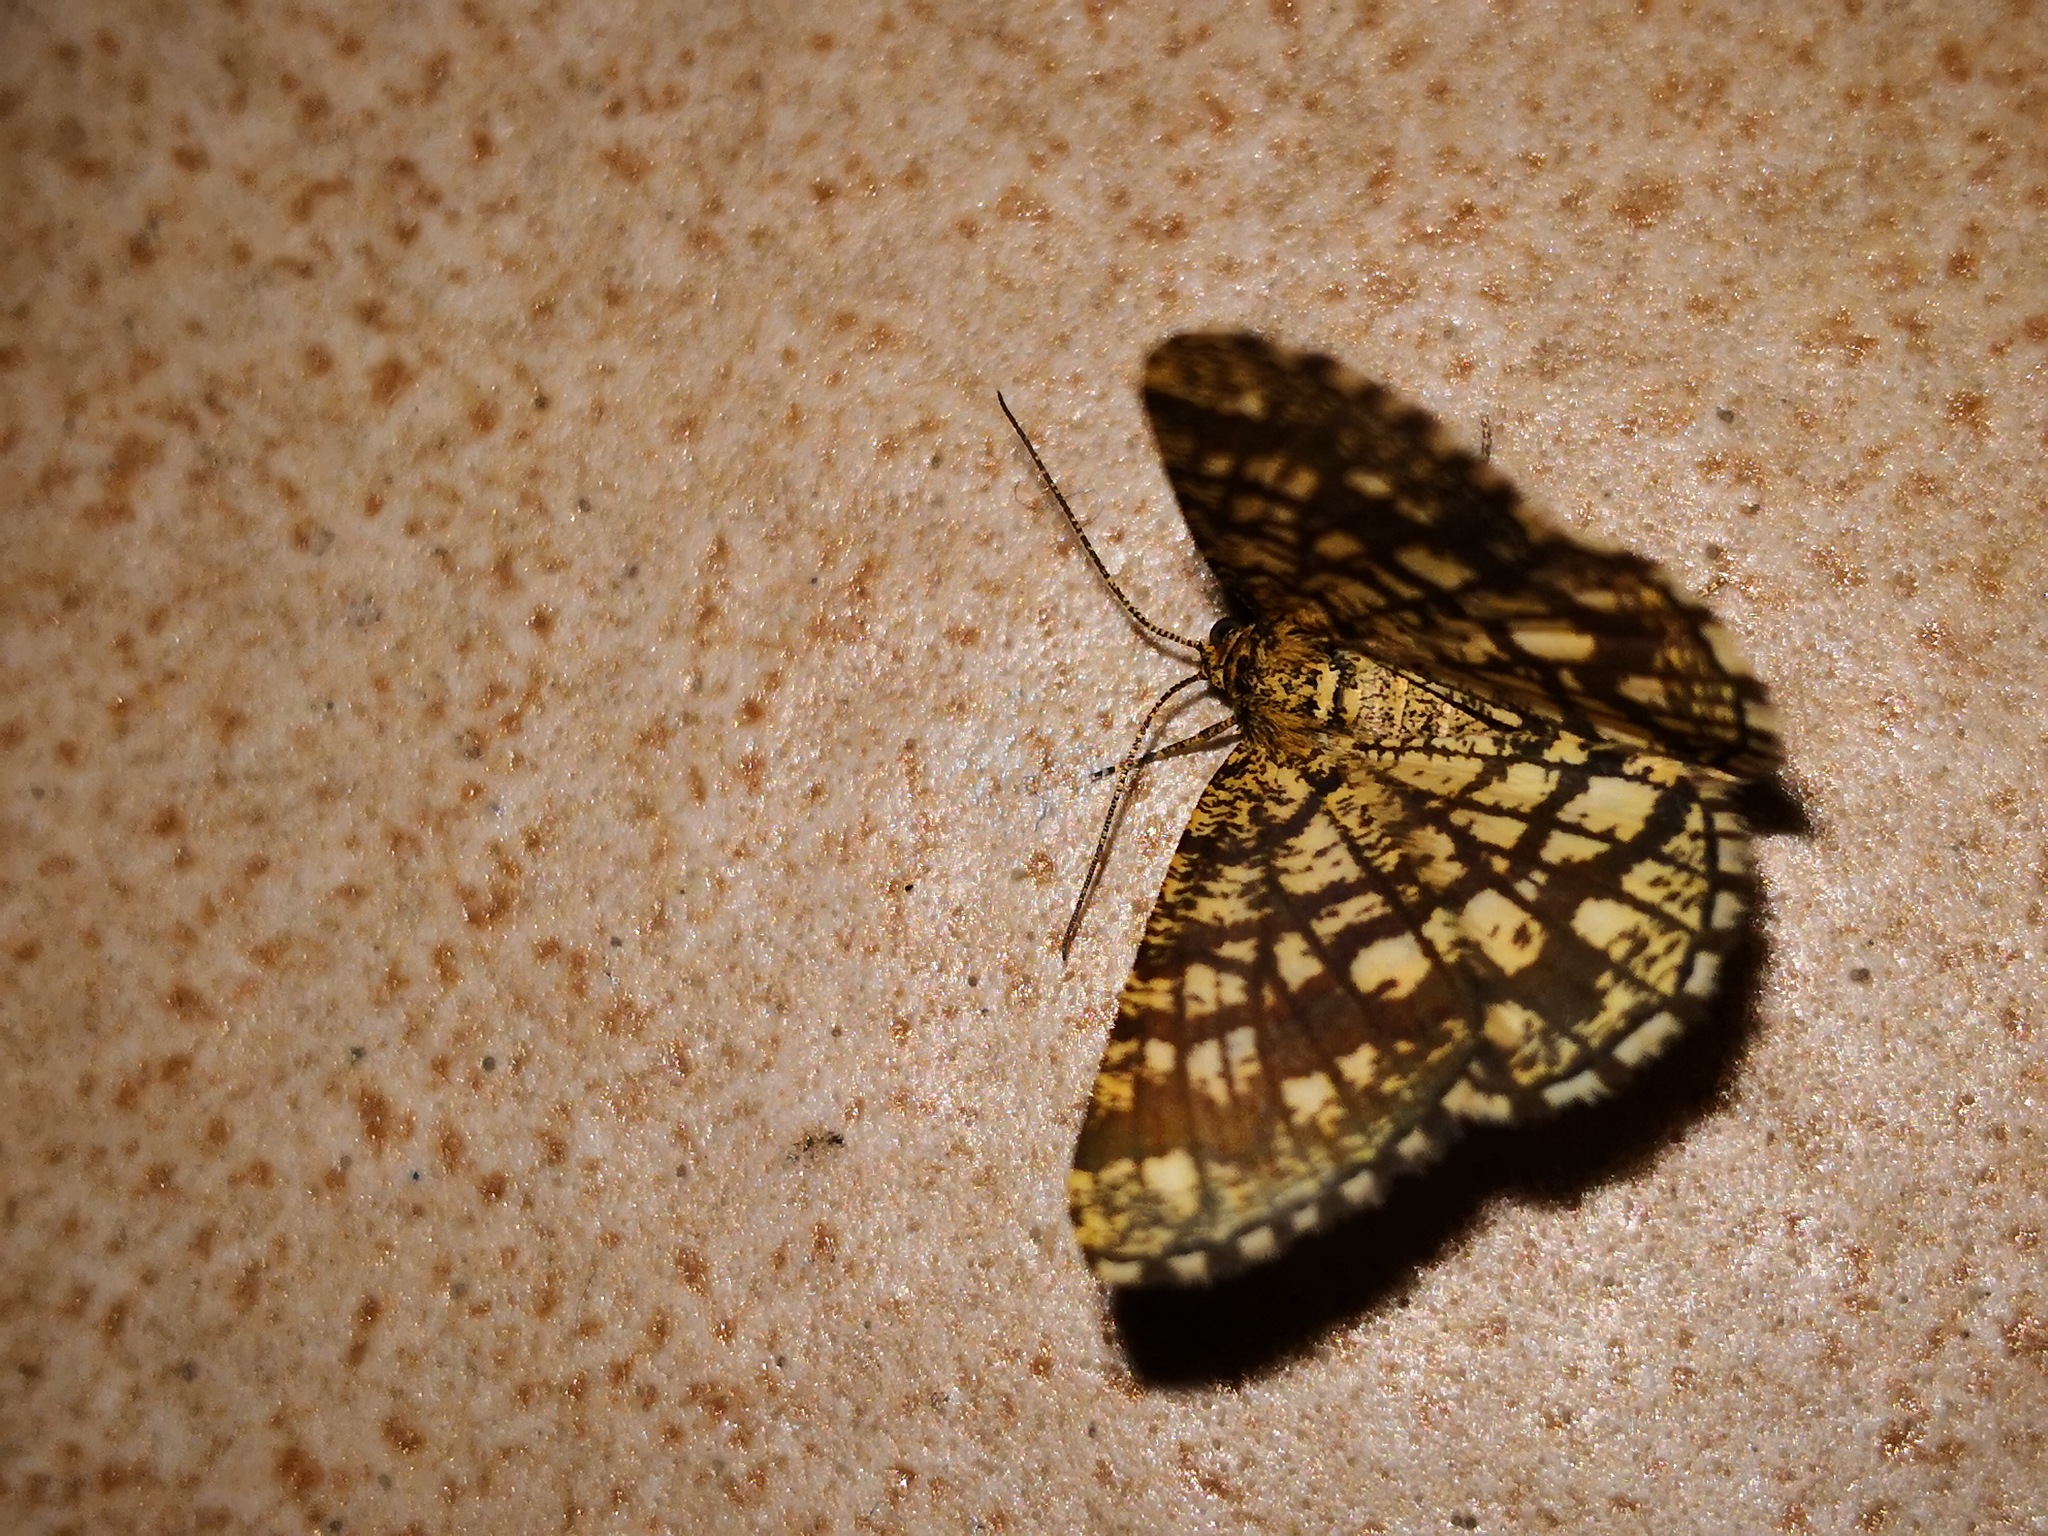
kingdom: Animalia
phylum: Arthropoda
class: Insecta
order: Lepidoptera
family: Geometridae
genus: Chiasmia
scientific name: Chiasmia clathrata
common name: Latticed heath
